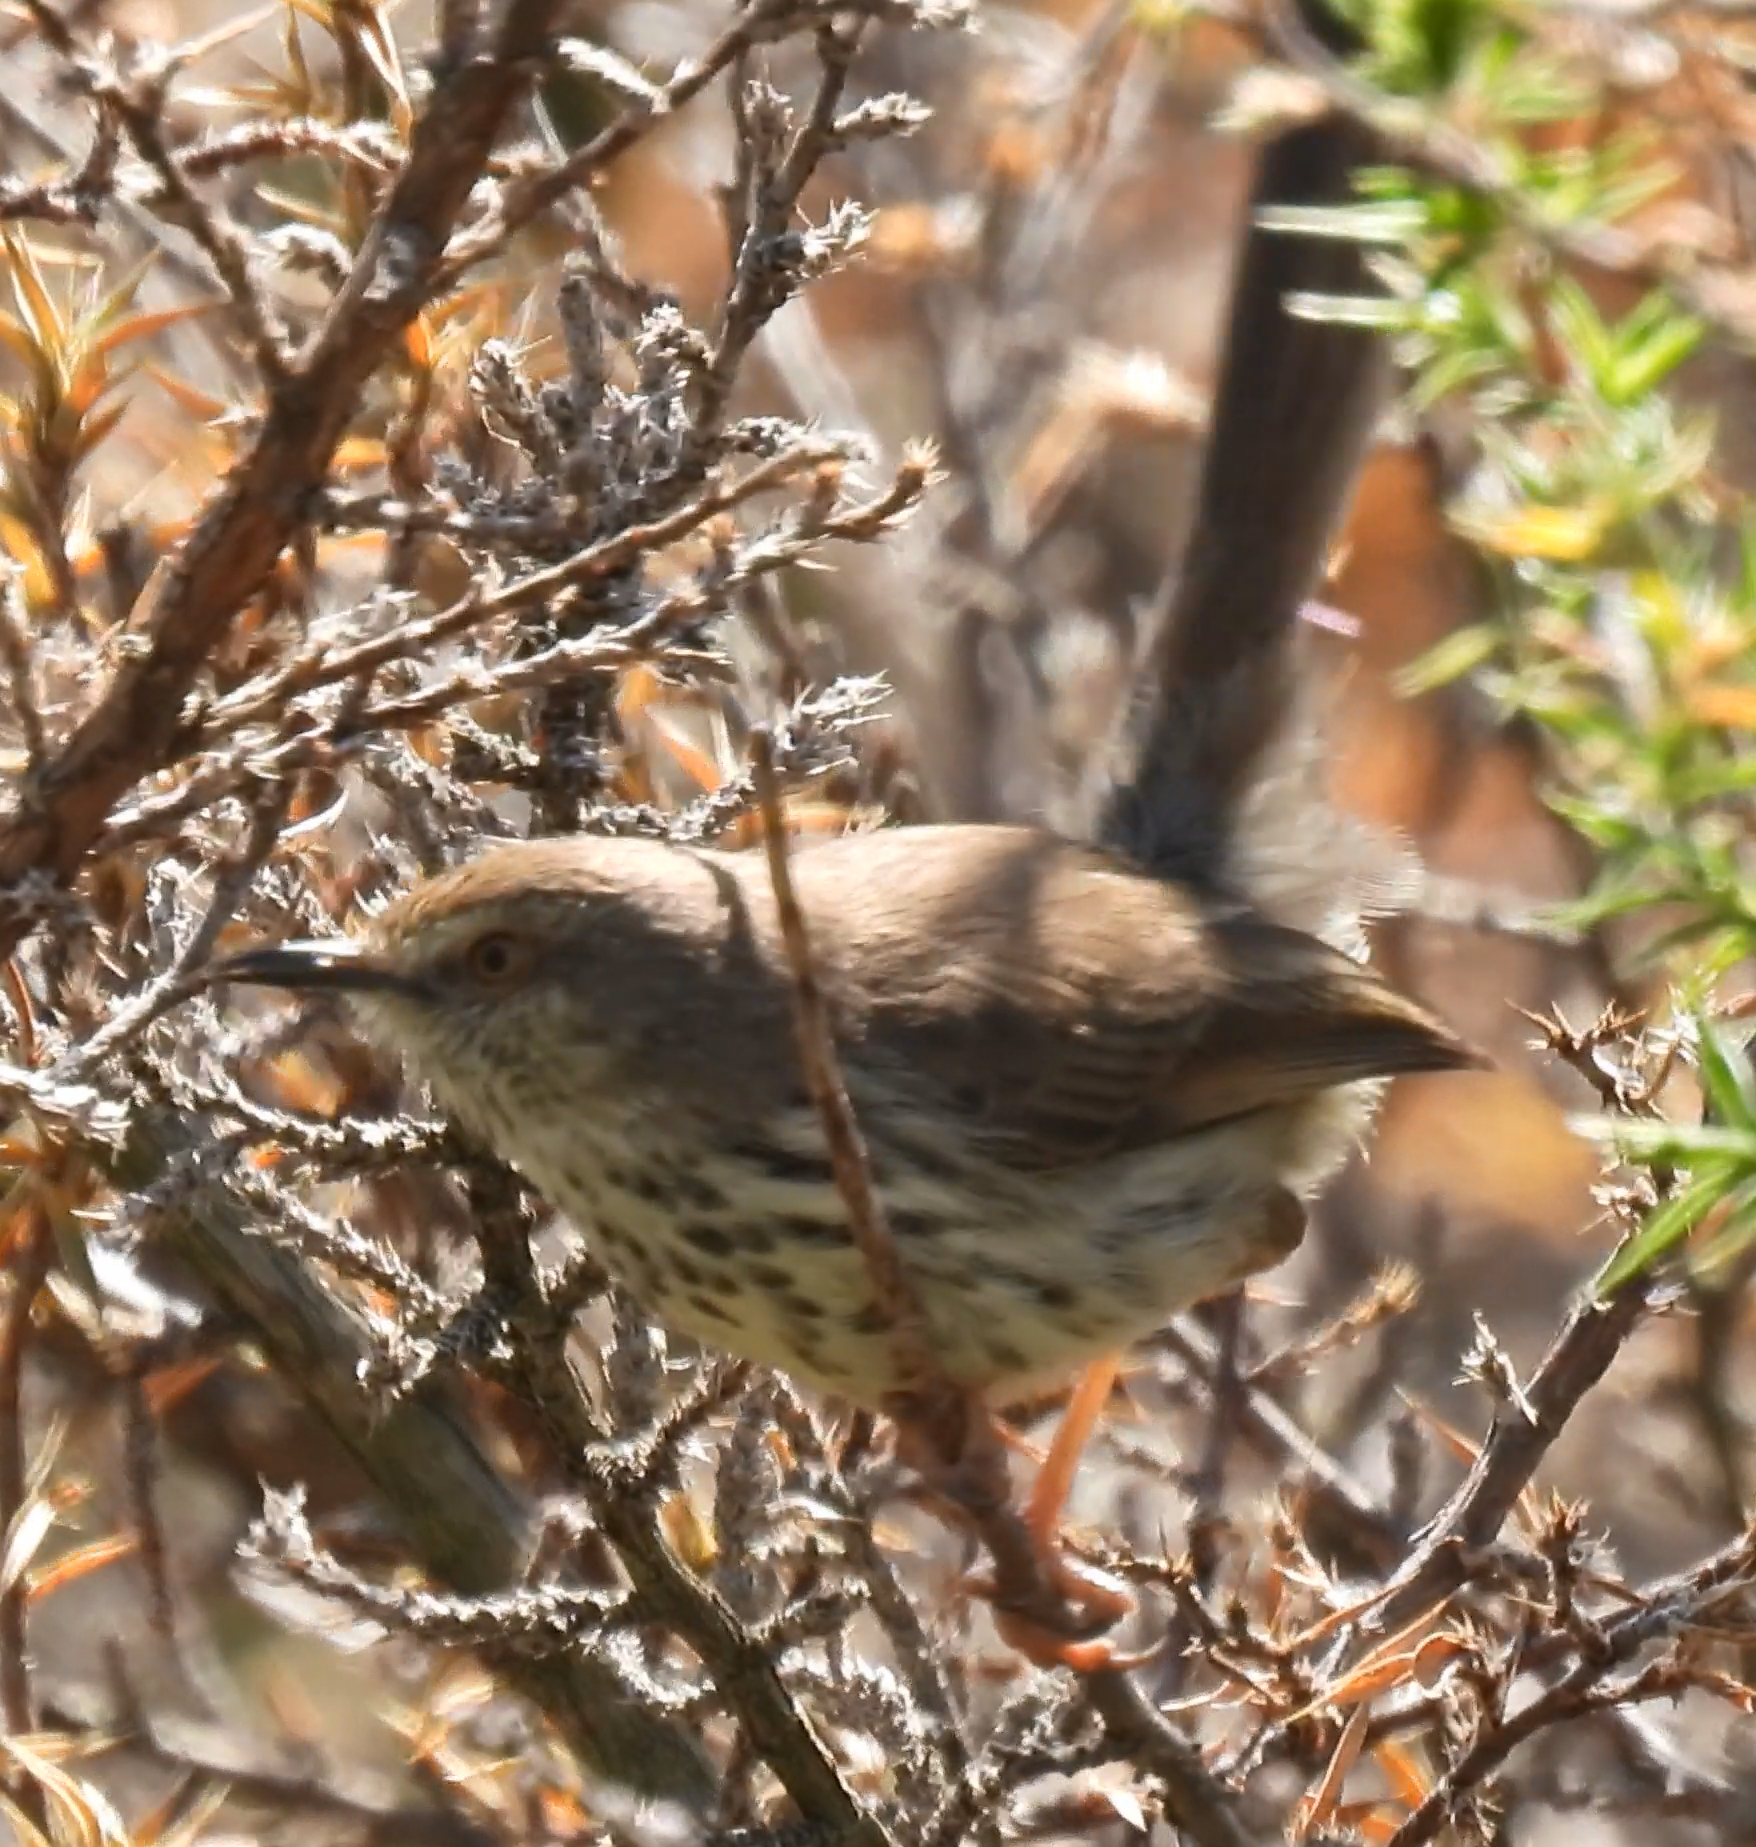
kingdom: Animalia
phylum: Chordata
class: Aves
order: Passeriformes
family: Cisticolidae
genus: Prinia
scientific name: Prinia maculosa
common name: Karoo prinia
